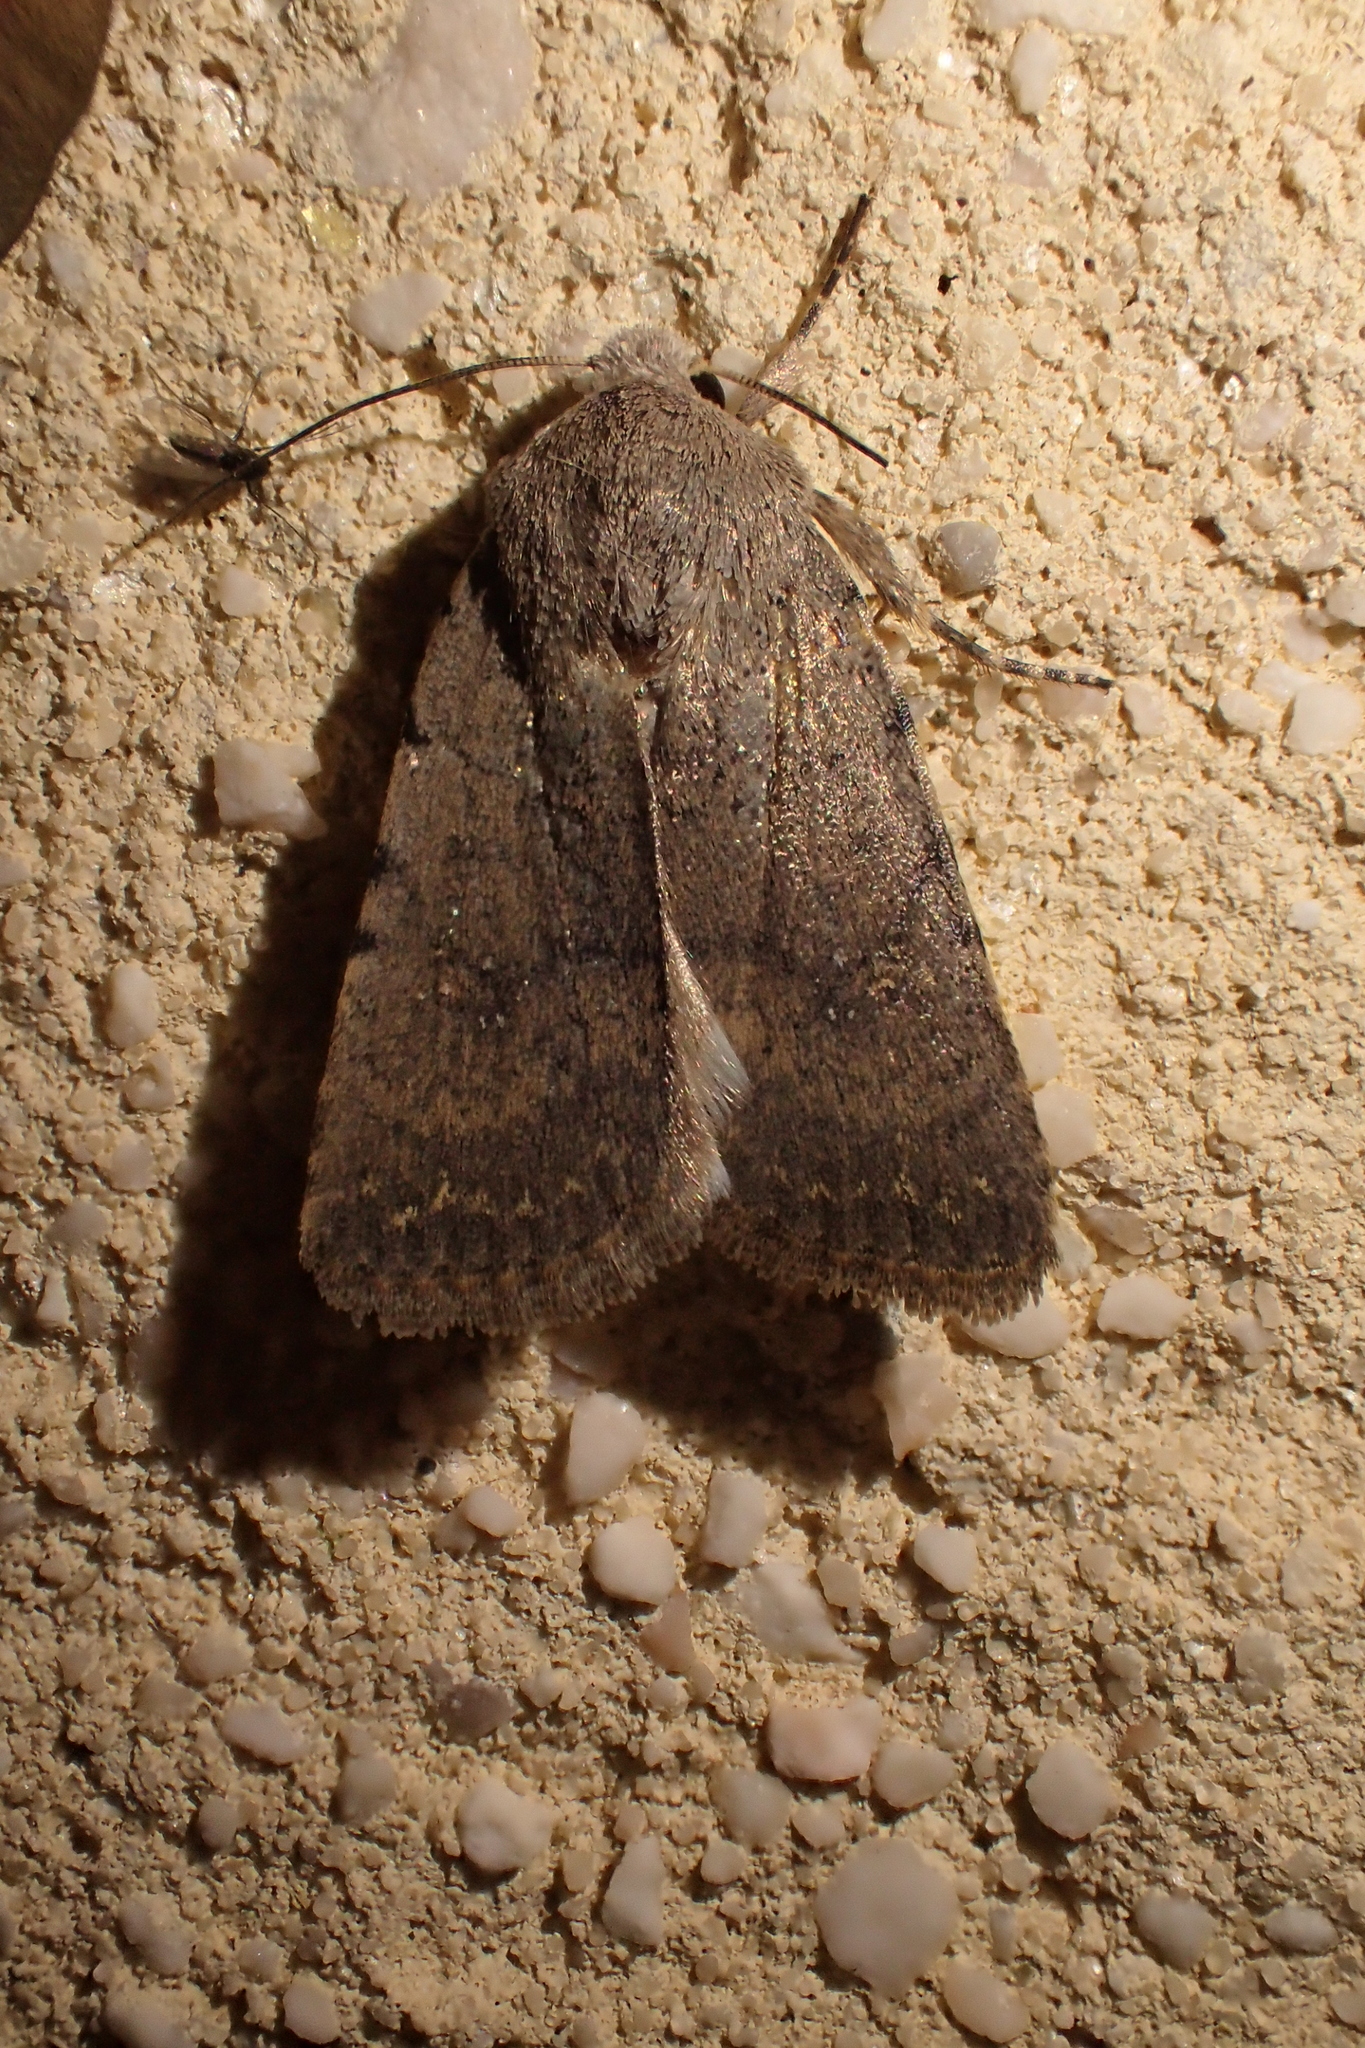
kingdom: Animalia
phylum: Arthropoda
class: Insecta
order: Lepidoptera
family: Noctuidae
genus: Caradrina
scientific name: Caradrina flavirena
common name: Lorimer's rustic
